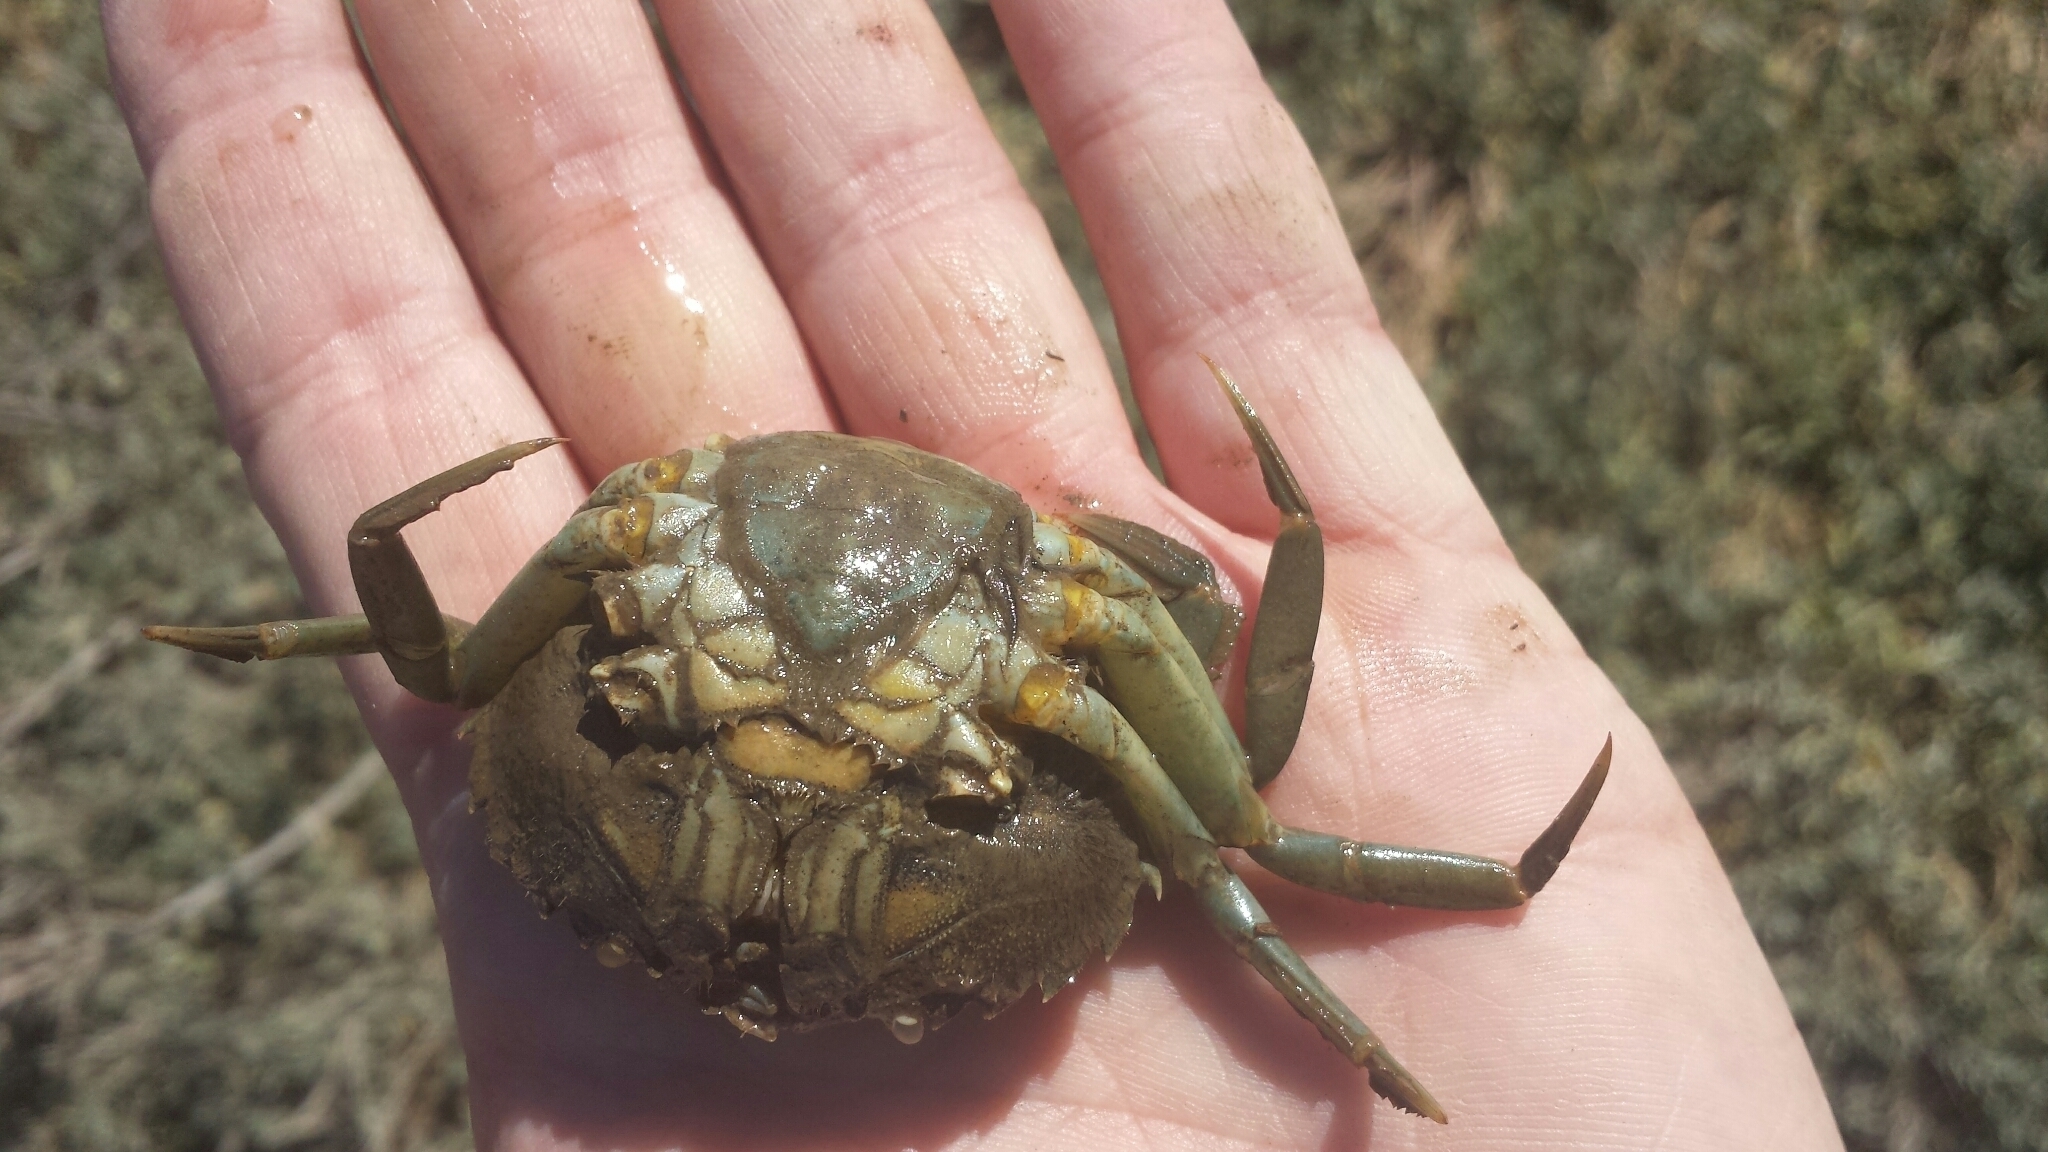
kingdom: Animalia
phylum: Arthropoda
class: Malacostraca
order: Decapoda
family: Carcinidae
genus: Carcinus
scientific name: Carcinus maenas
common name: European green crab
